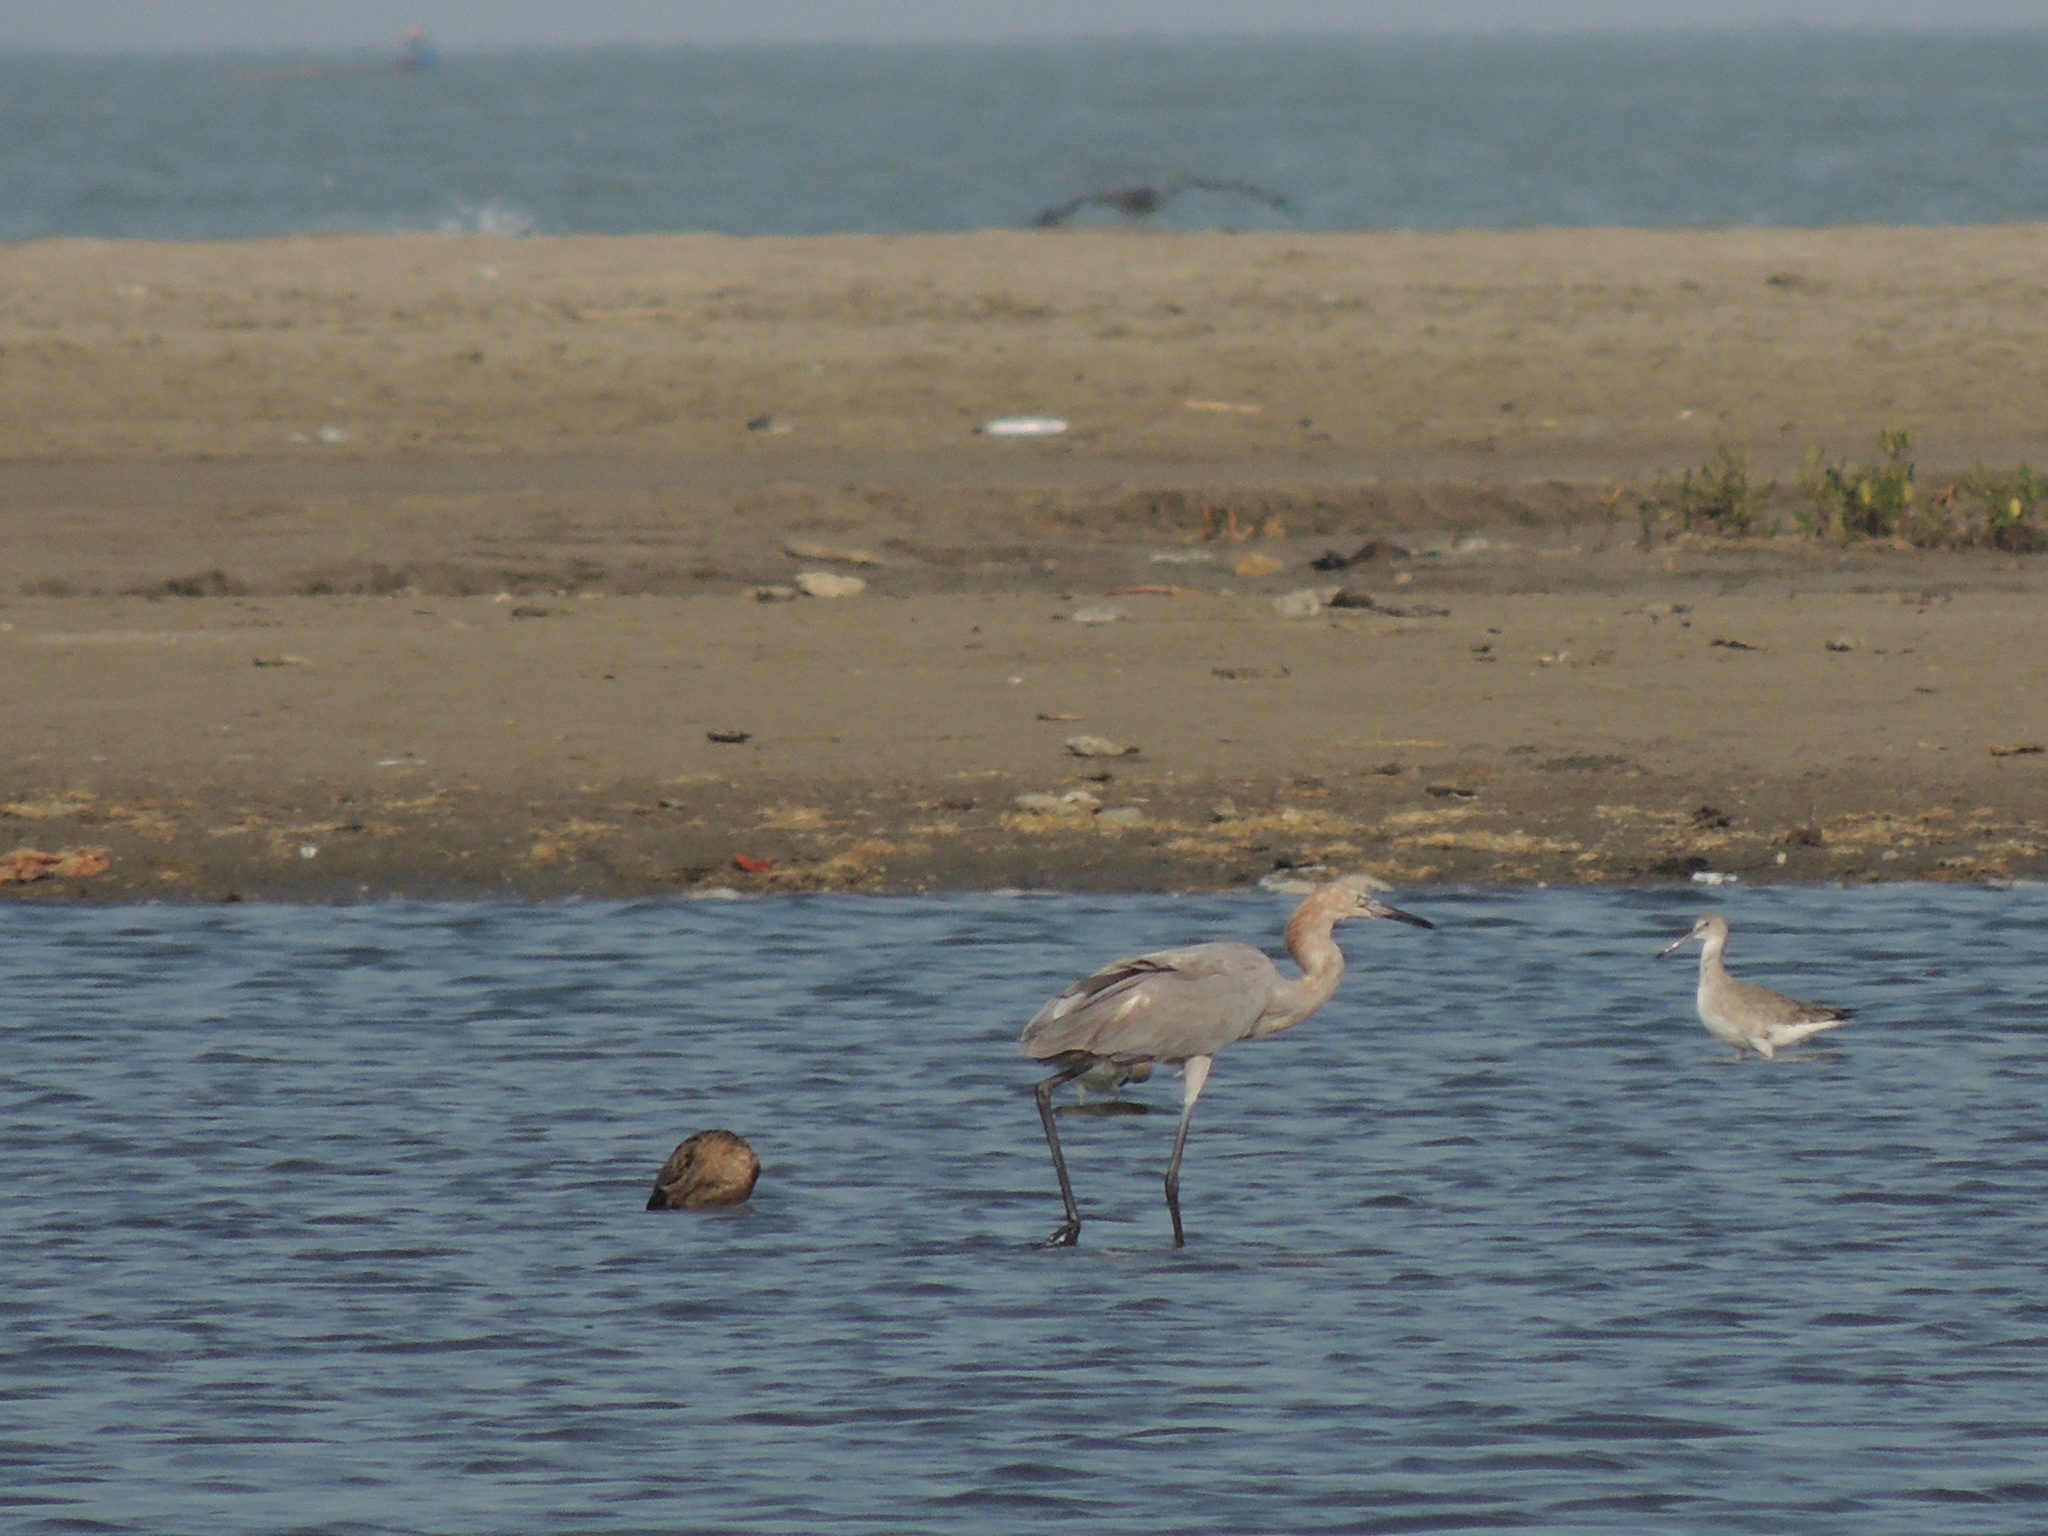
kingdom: Animalia
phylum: Chordata
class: Aves
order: Pelecaniformes
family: Ardeidae
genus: Egretta
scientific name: Egretta rufescens
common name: Reddish egret
